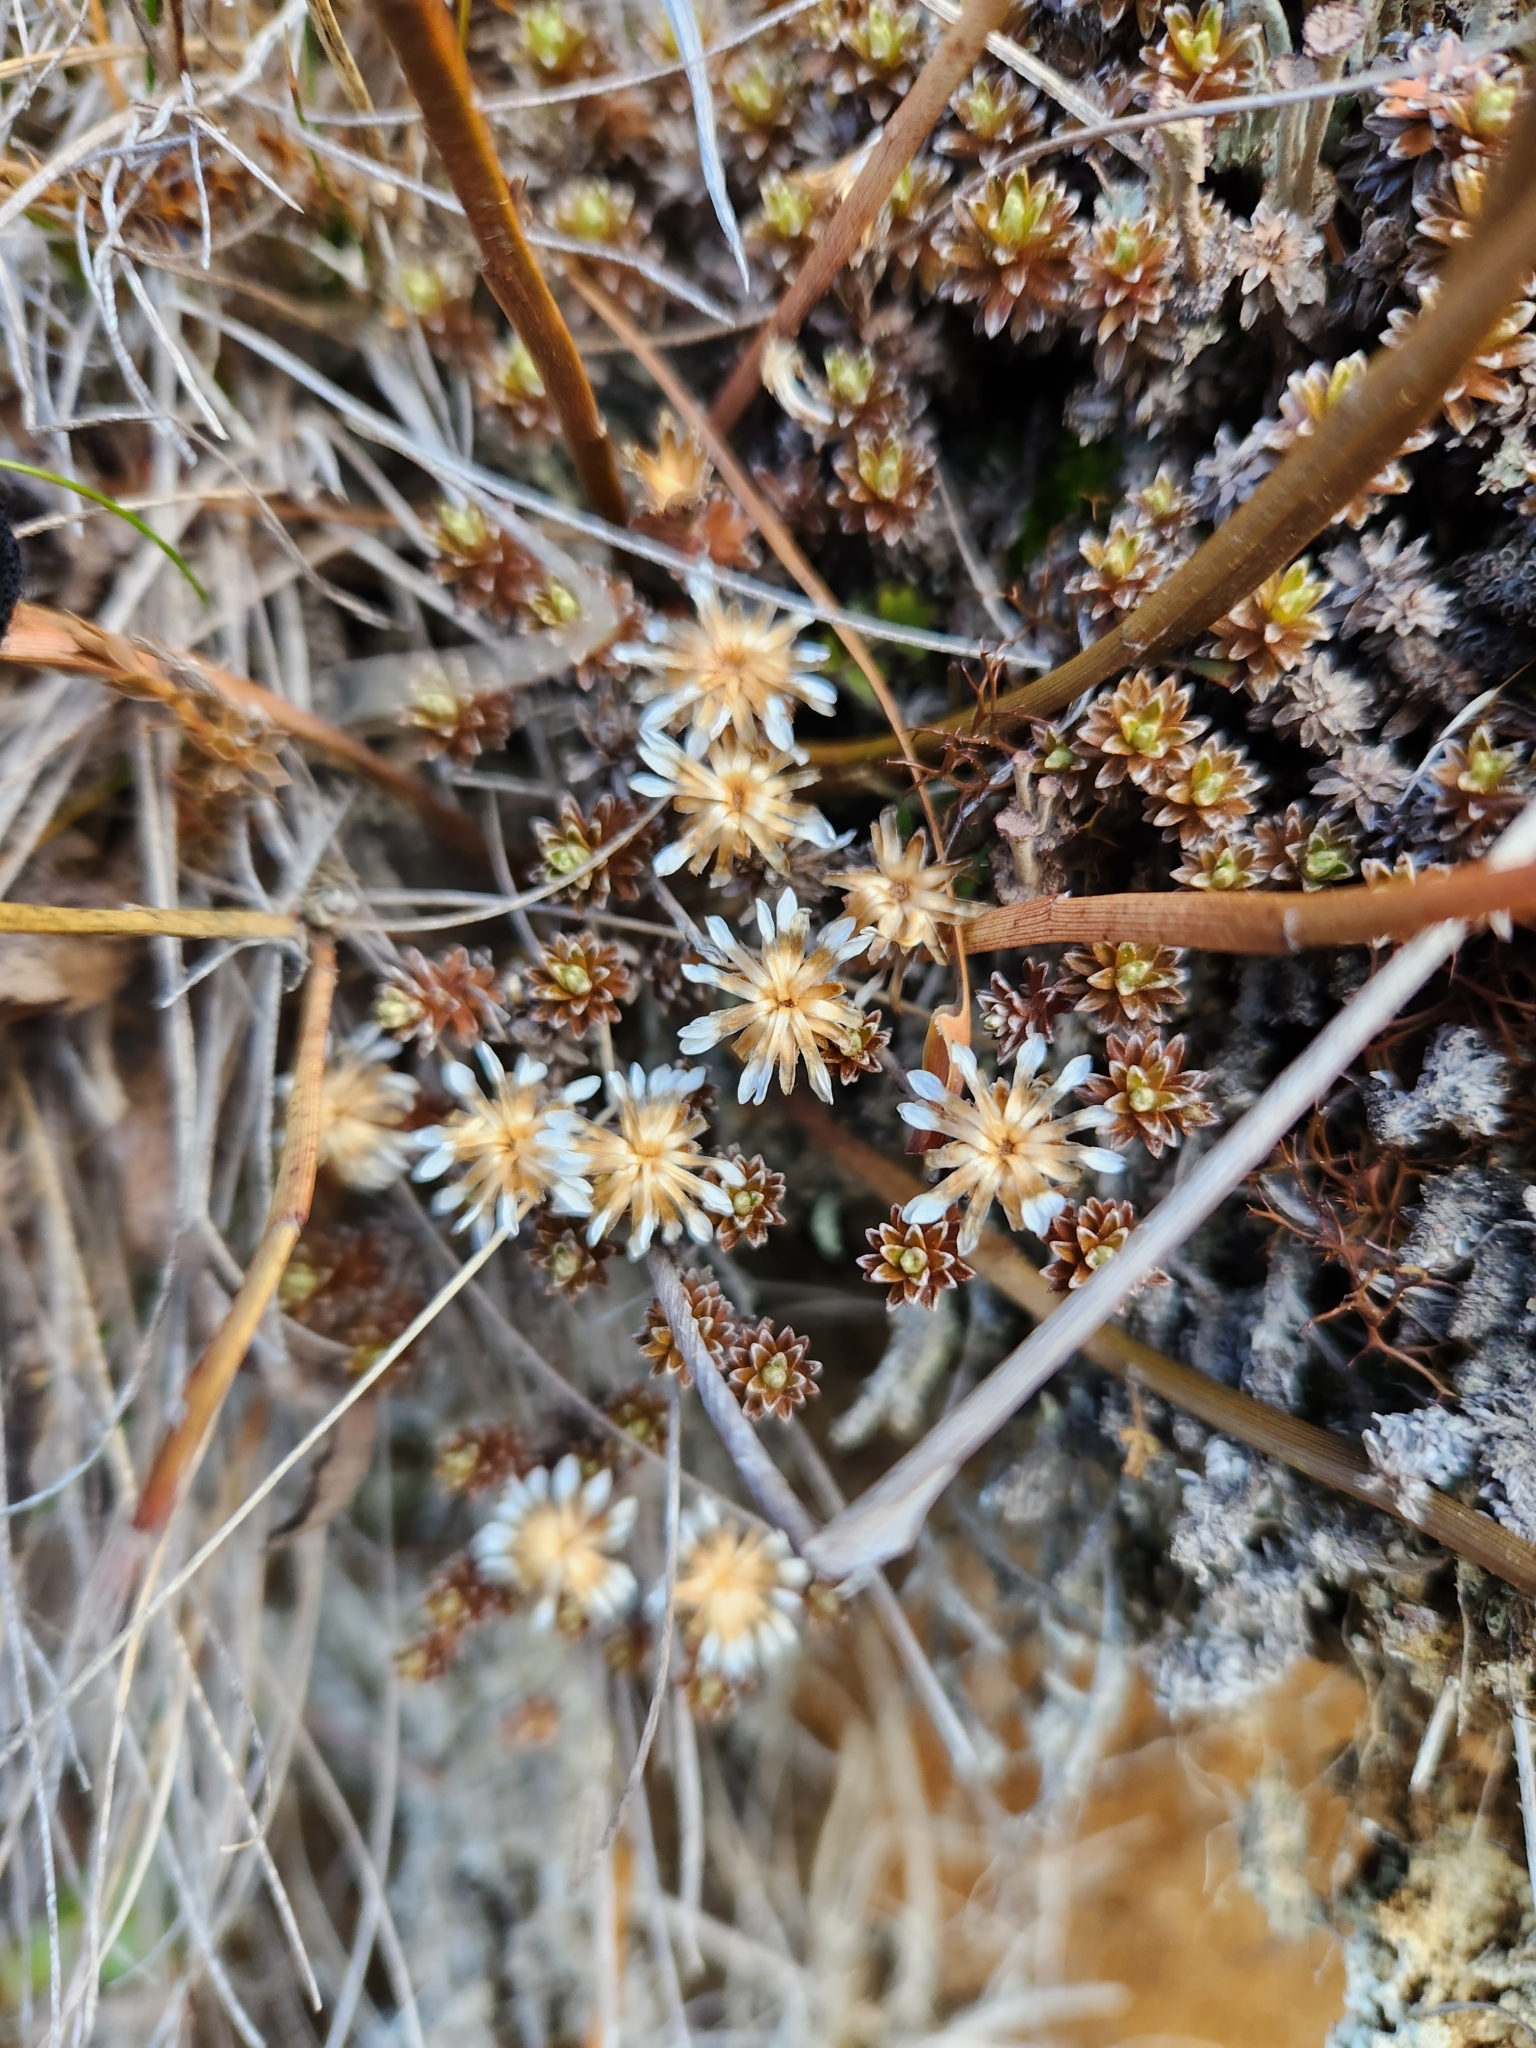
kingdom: Plantae
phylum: Tracheophyta
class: Magnoliopsida
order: Asterales
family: Asteraceae
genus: Raoulia
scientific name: Raoulia subsericea
